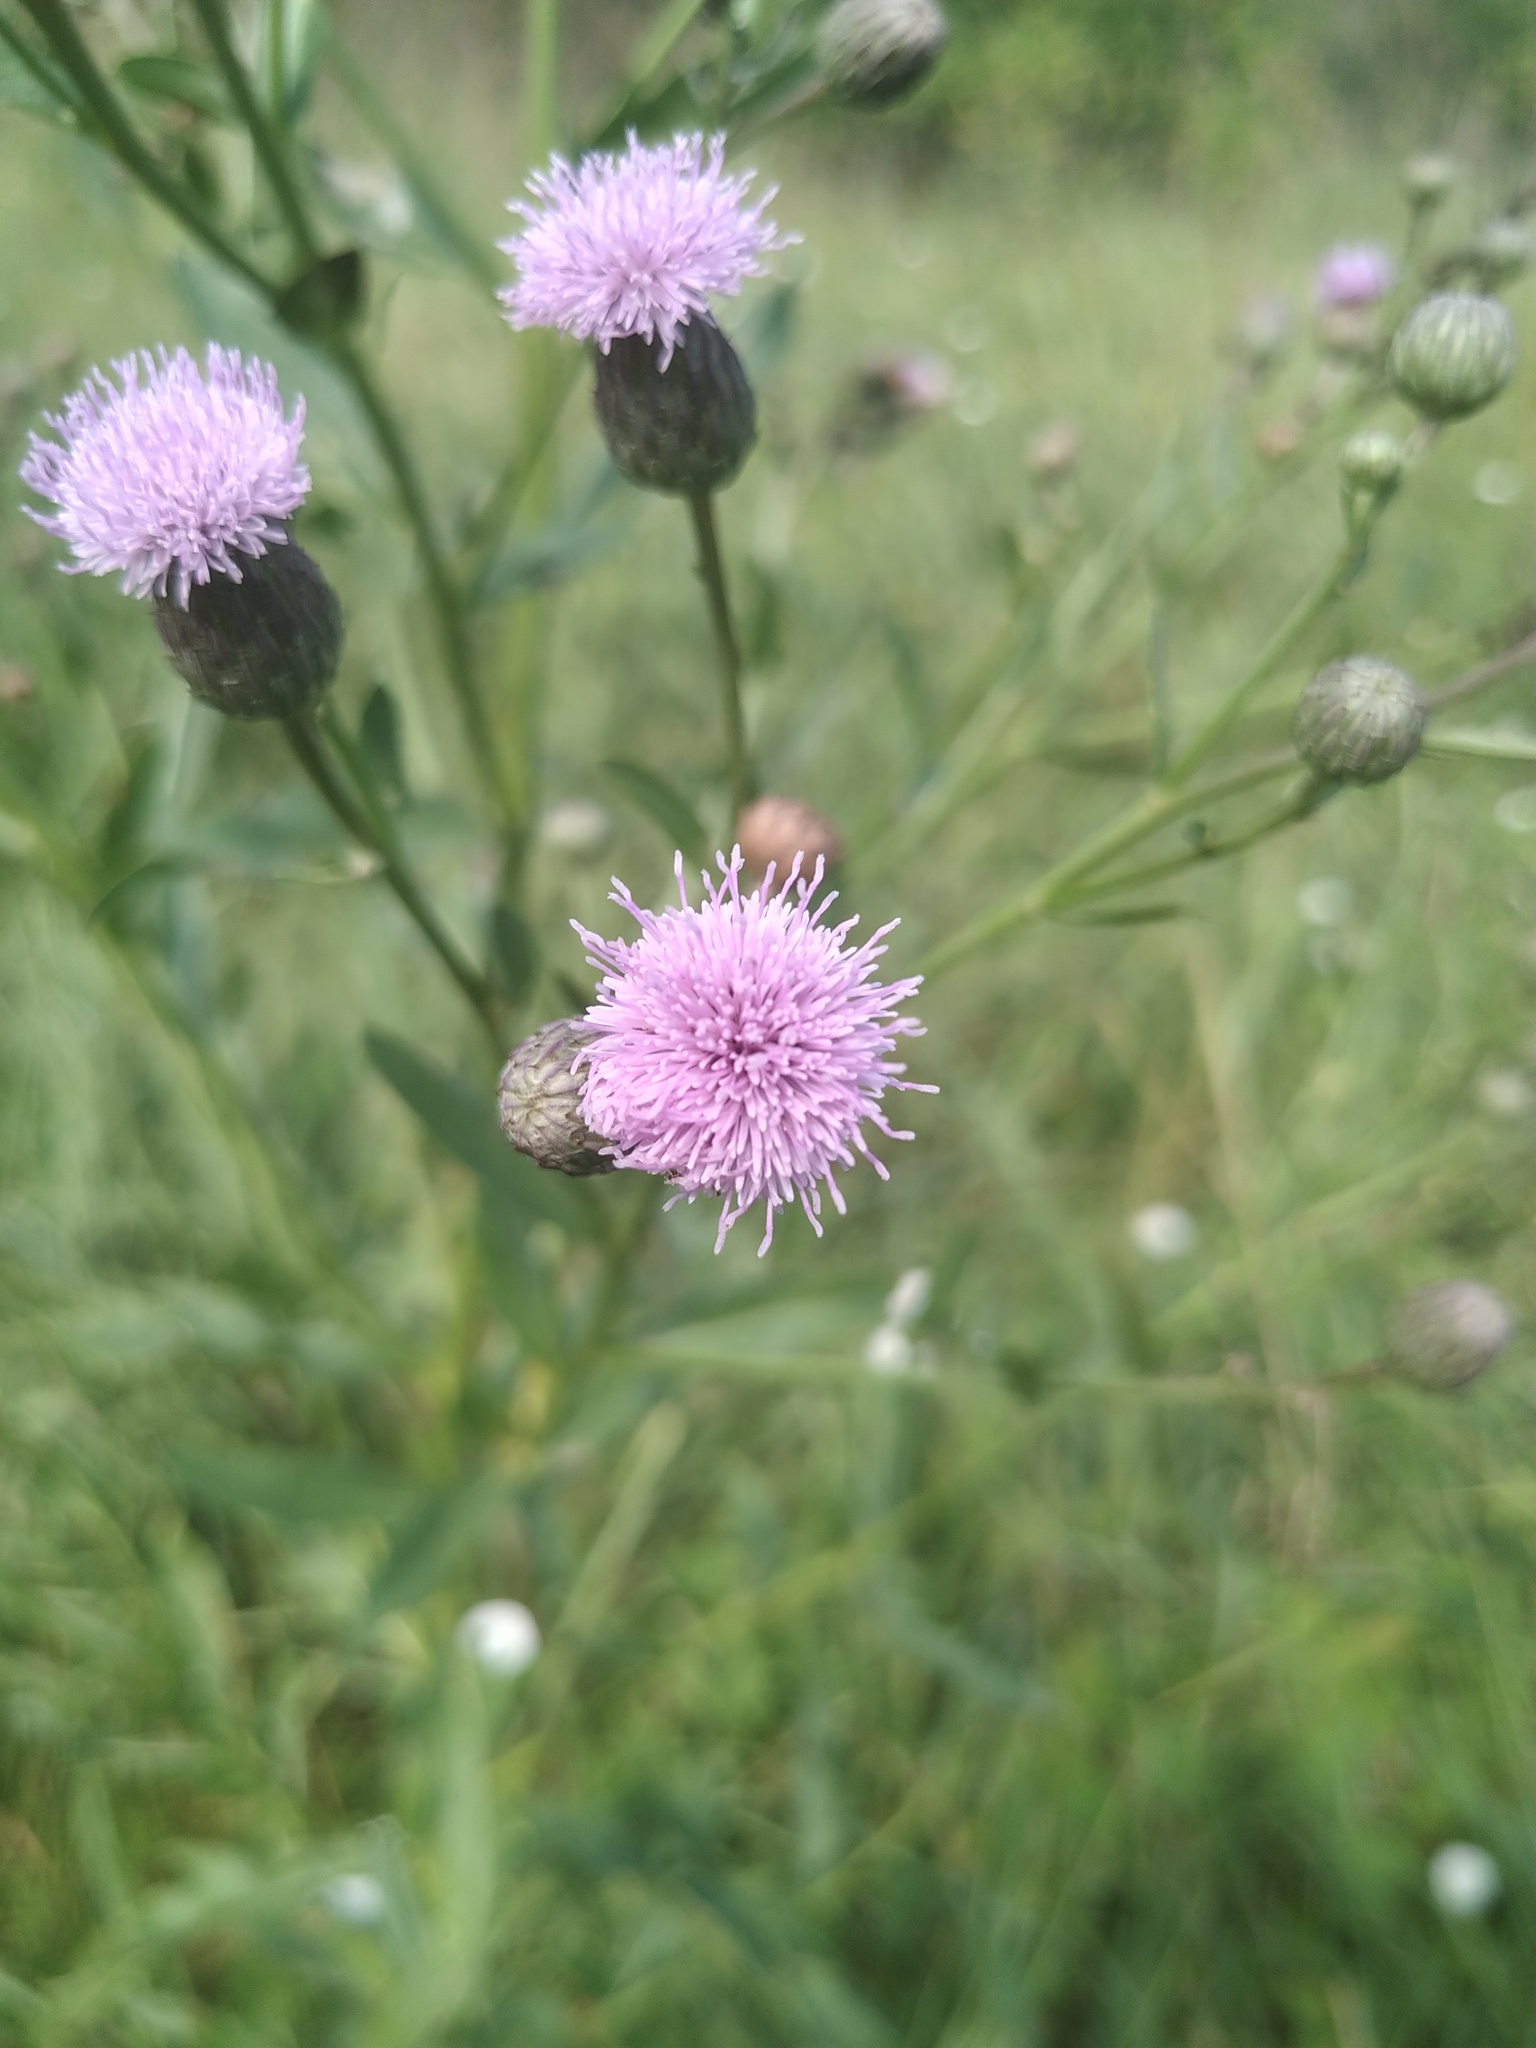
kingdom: Plantae
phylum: Tracheophyta
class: Magnoliopsida
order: Asterales
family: Asteraceae
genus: Cirsium
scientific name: Cirsium arvense
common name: Creeping thistle
